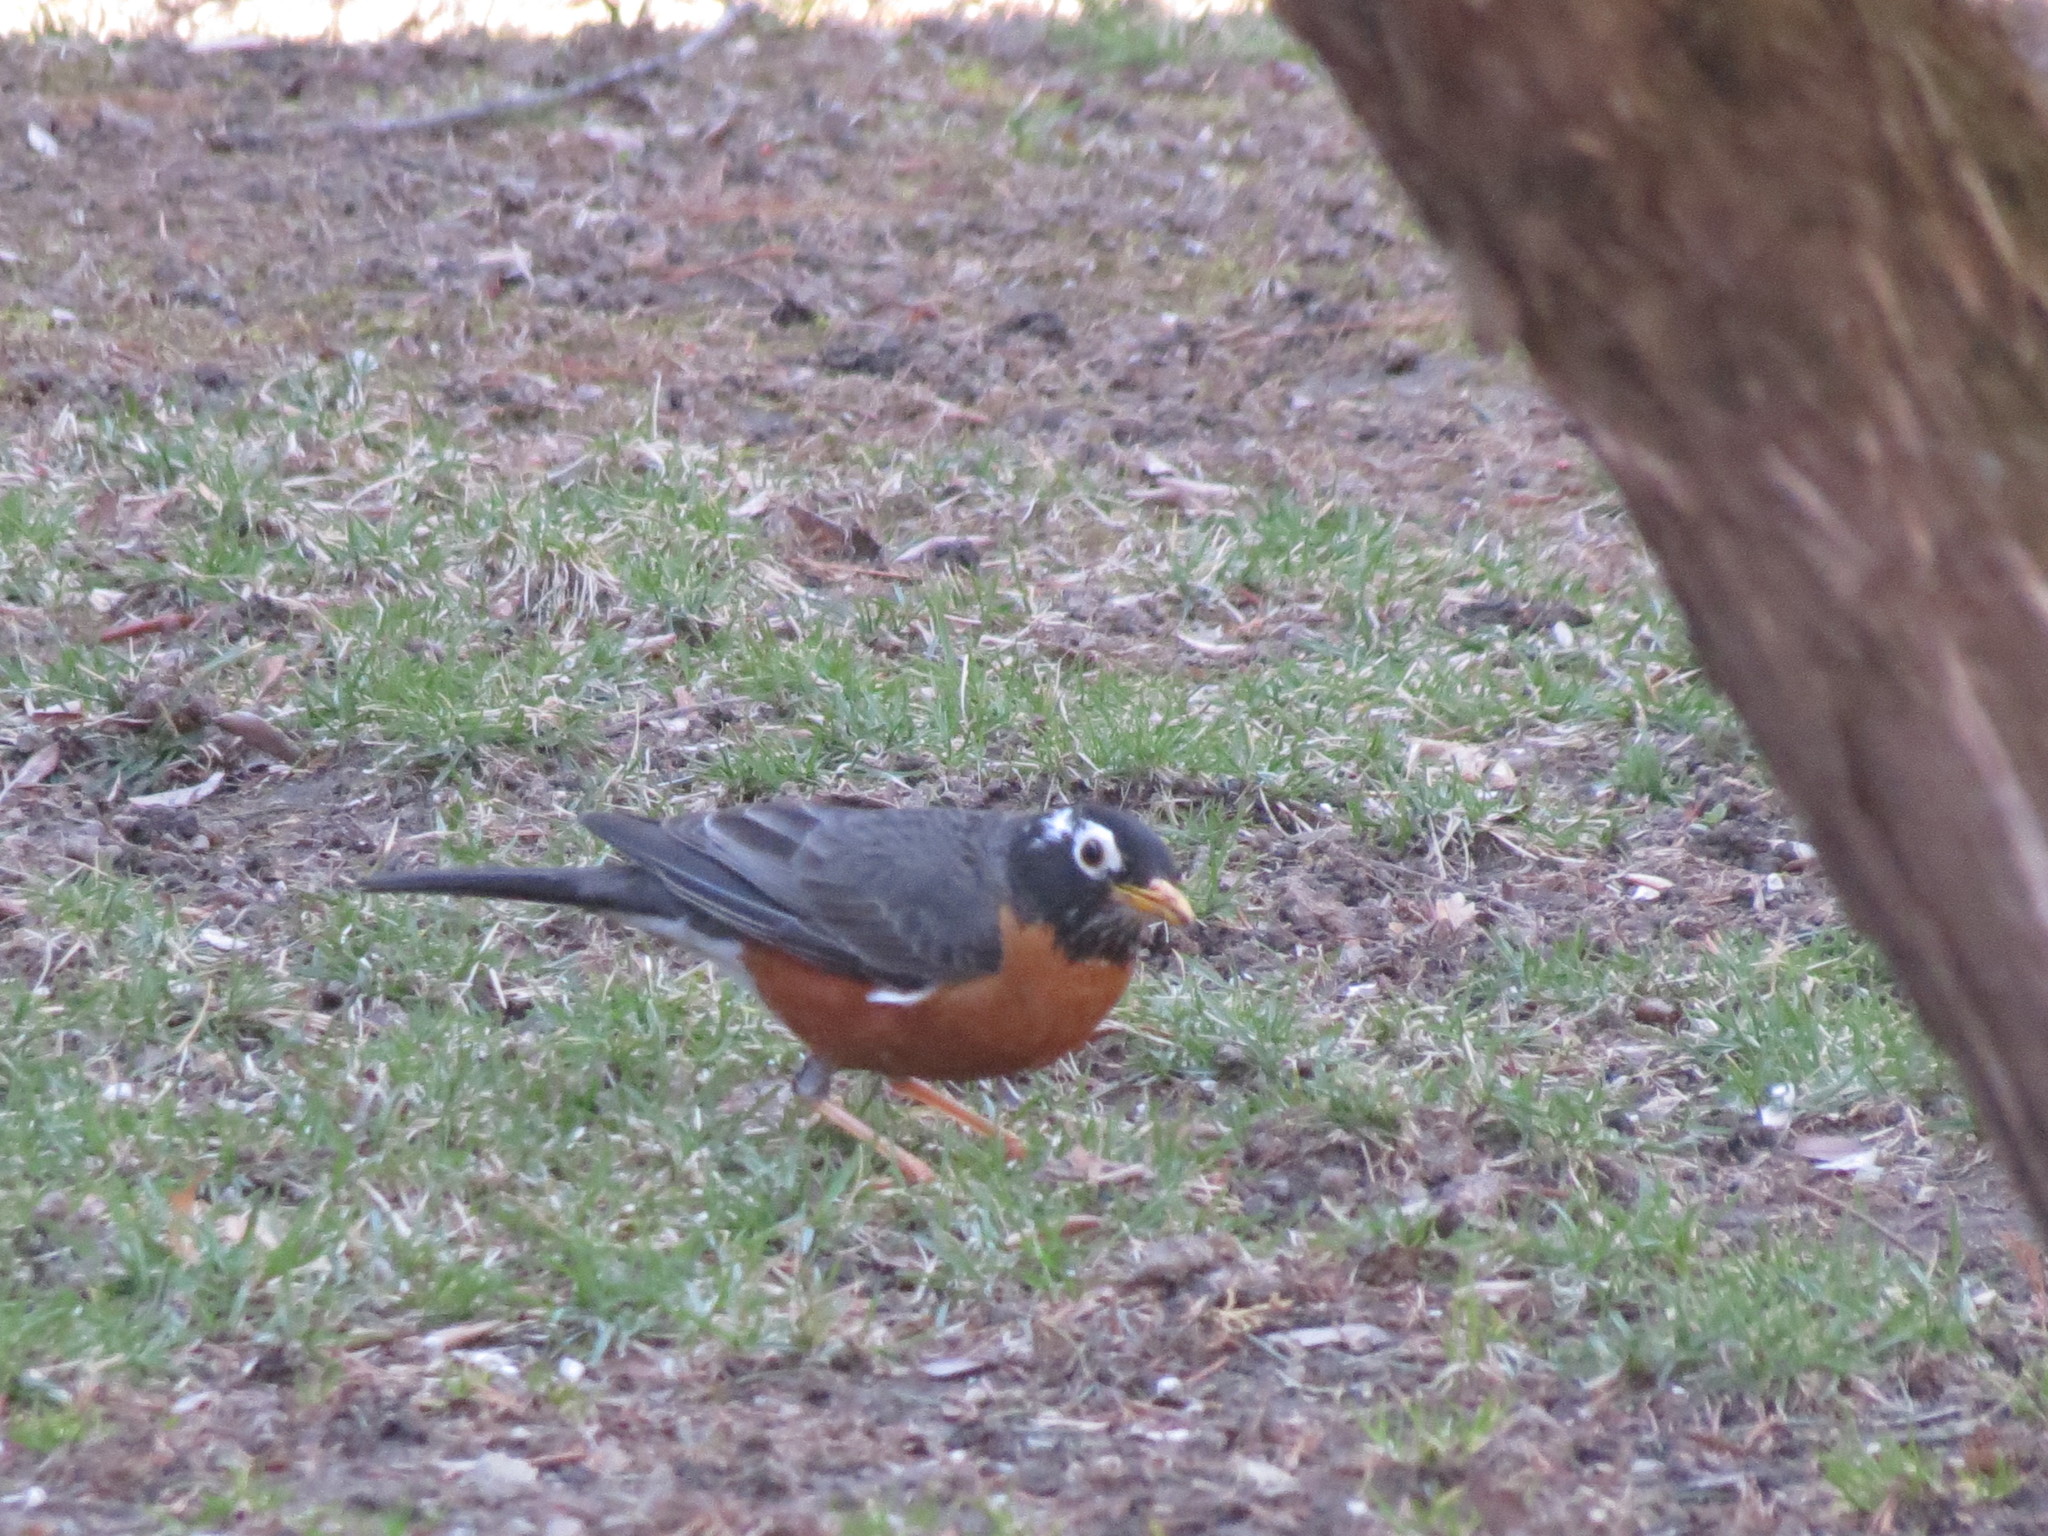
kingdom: Animalia
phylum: Chordata
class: Aves
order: Passeriformes
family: Turdidae
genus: Turdus
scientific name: Turdus migratorius
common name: American robin
